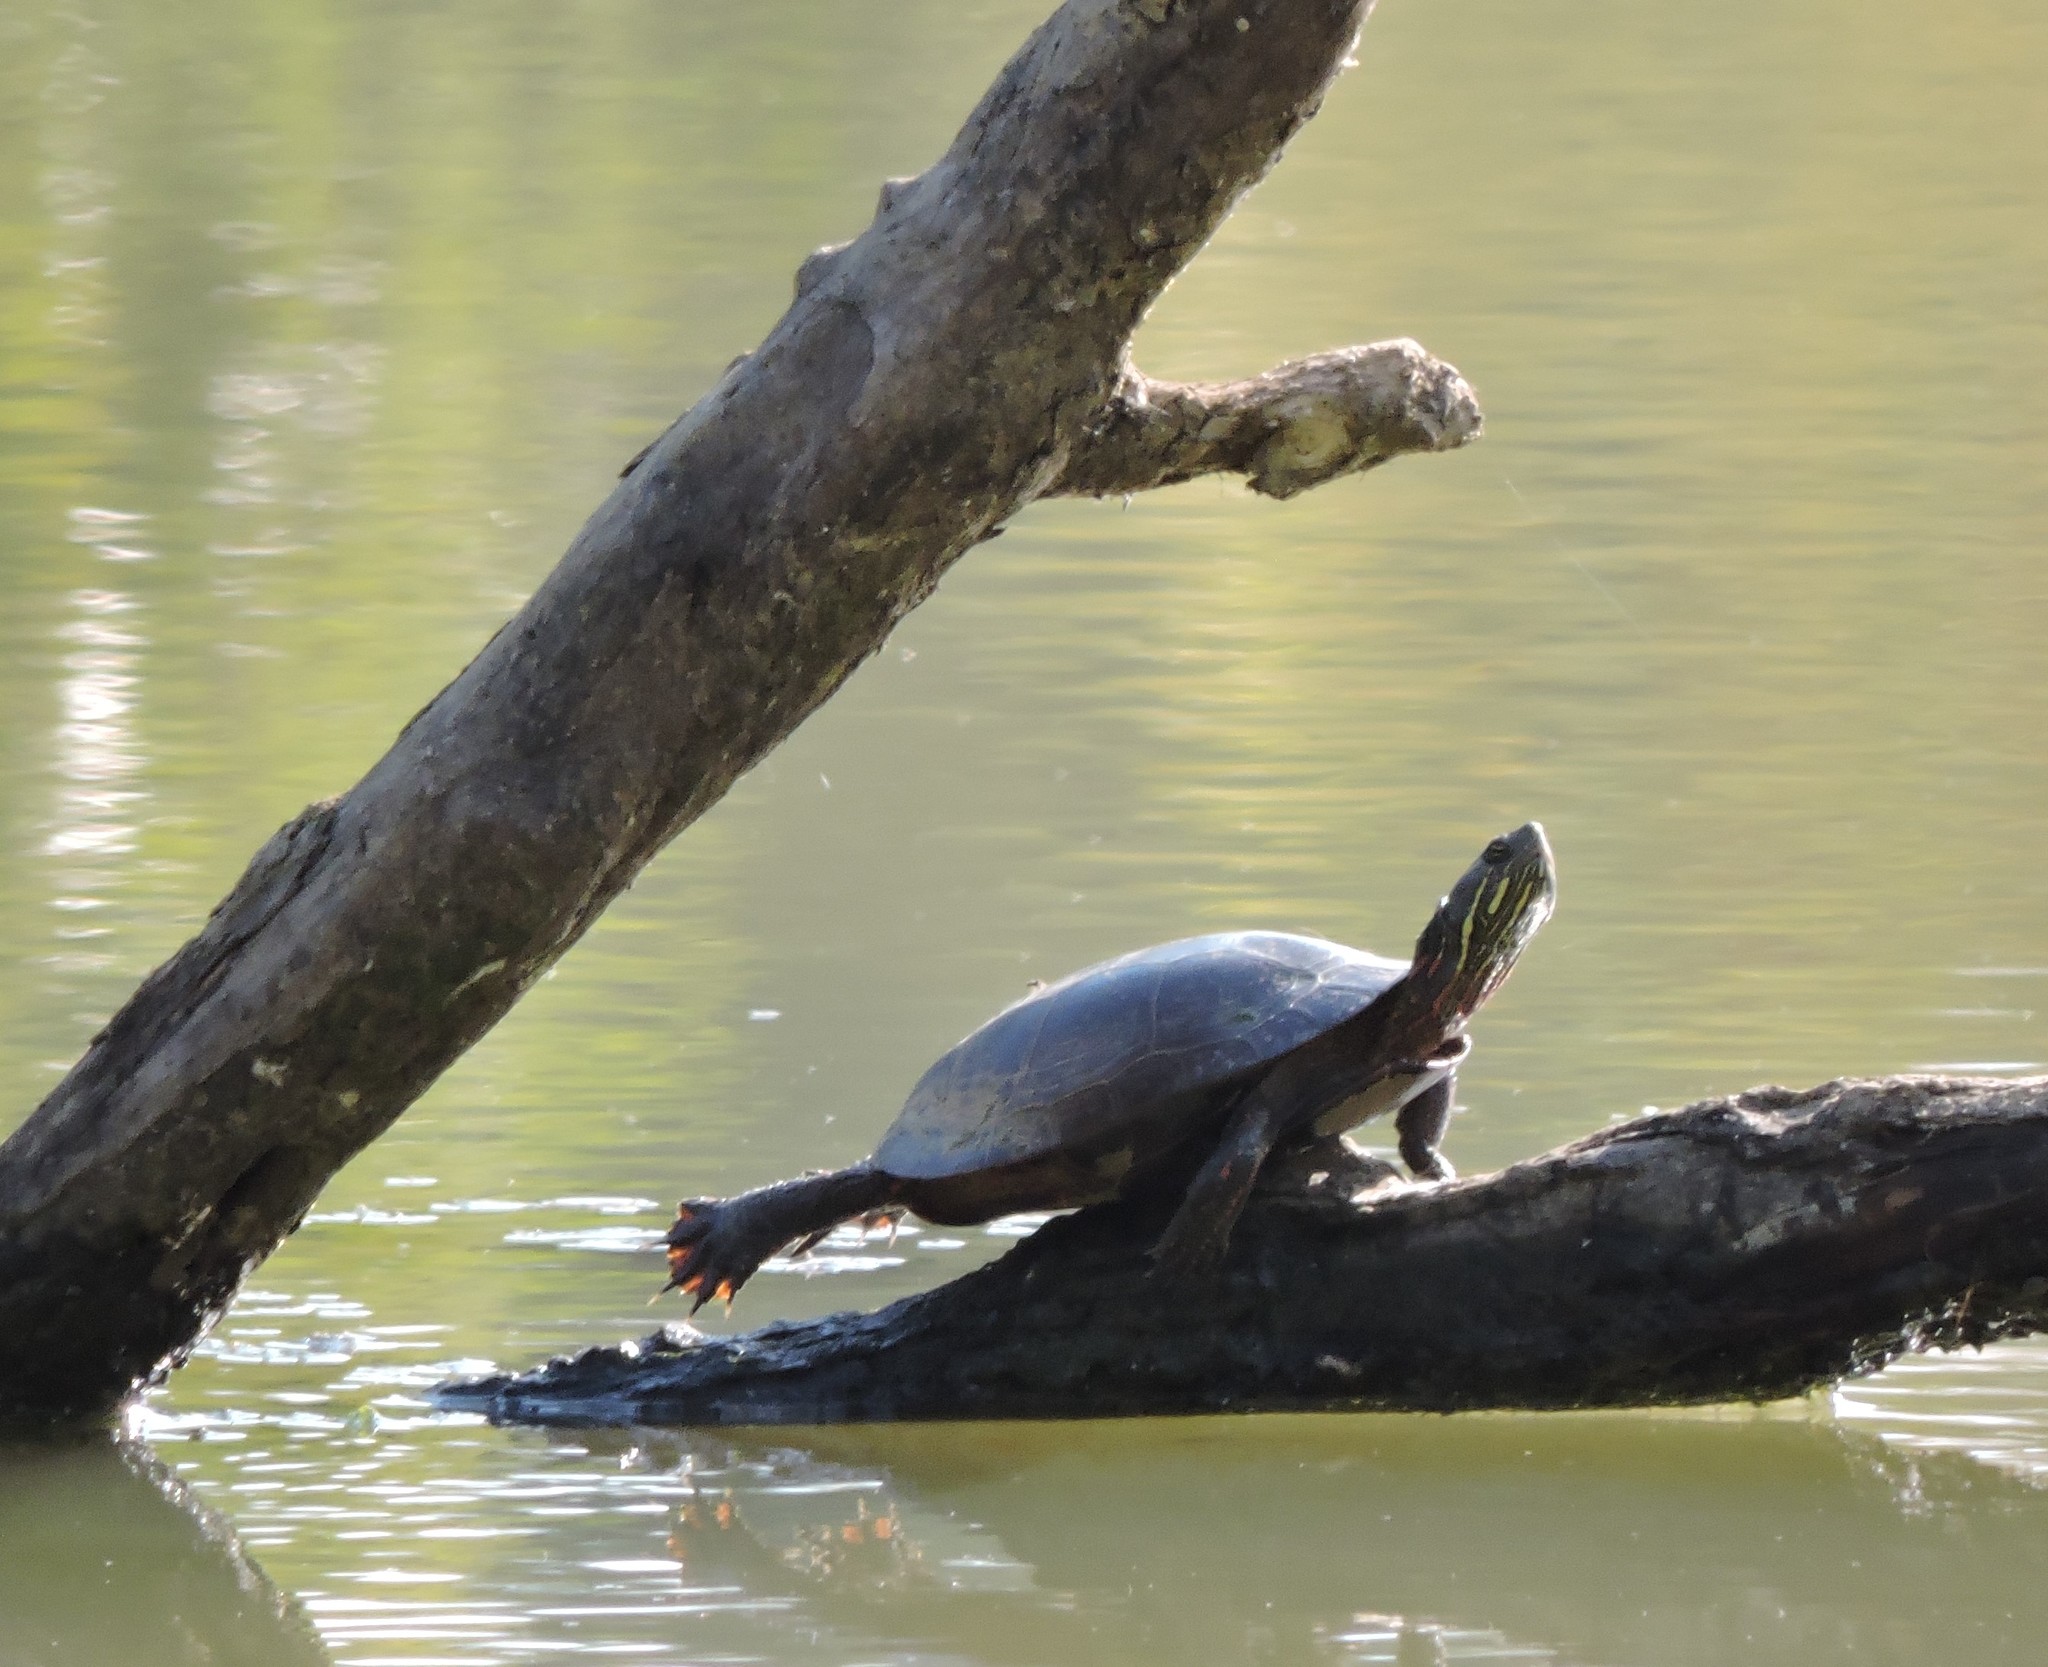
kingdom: Animalia
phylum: Chordata
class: Testudines
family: Emydidae
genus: Chrysemys
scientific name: Chrysemys picta
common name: Painted turtle
